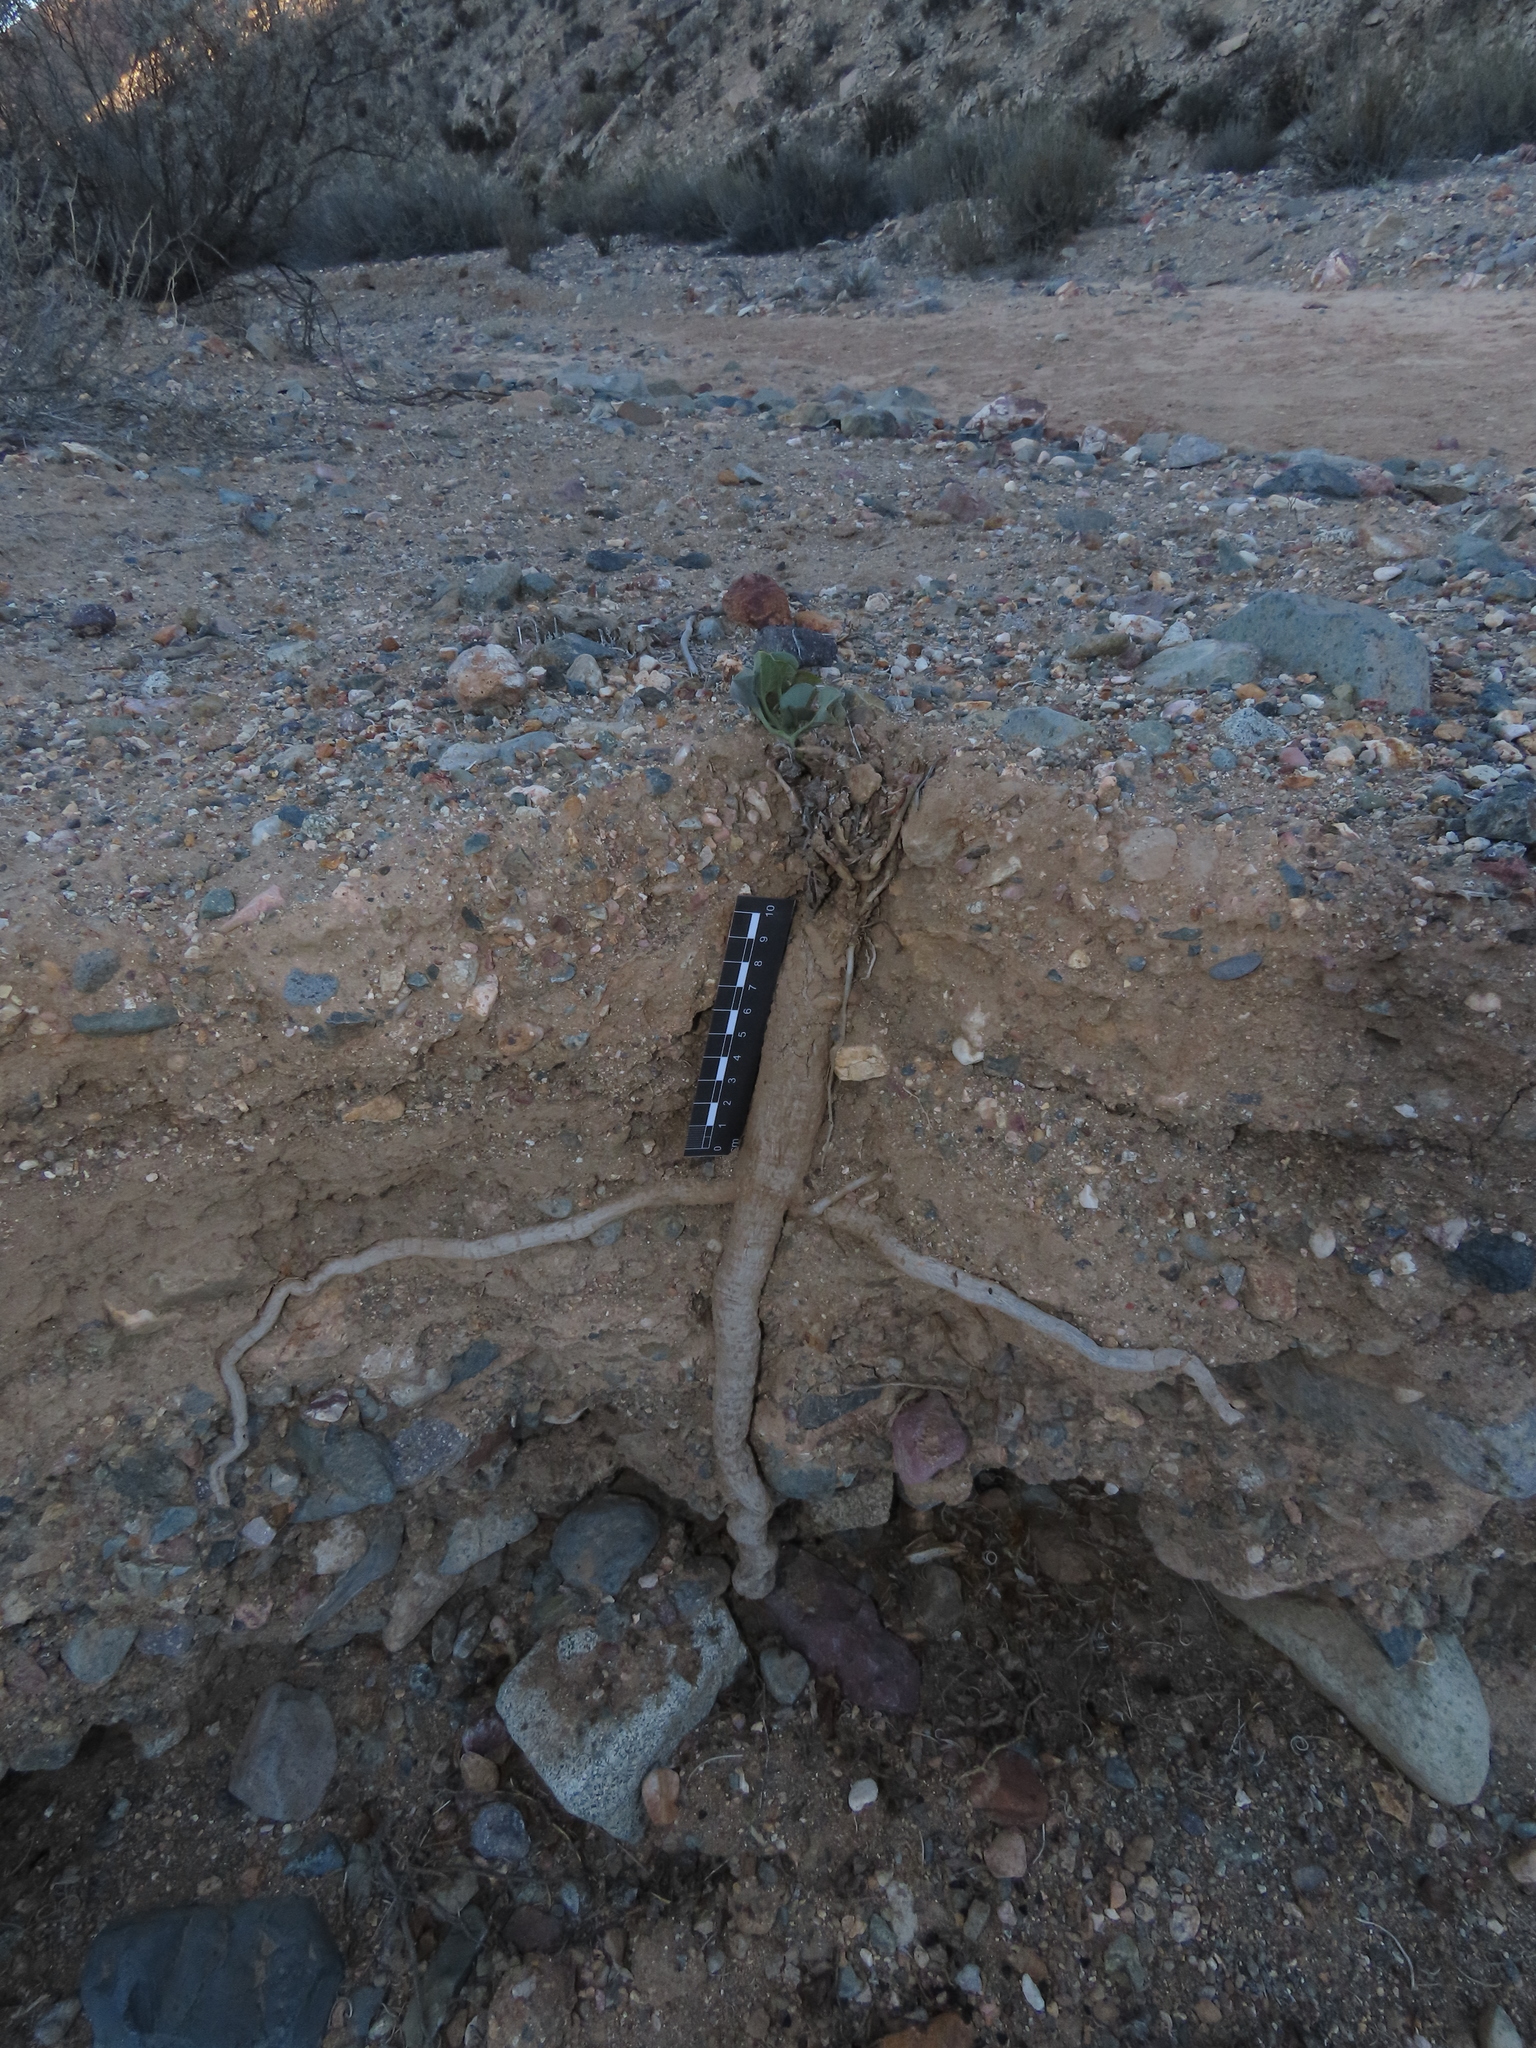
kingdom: Plantae
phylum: Tracheophyta
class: Magnoliopsida
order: Piperales
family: Aristolochiaceae
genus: Aristolochia
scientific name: Aristolochia chilensis
